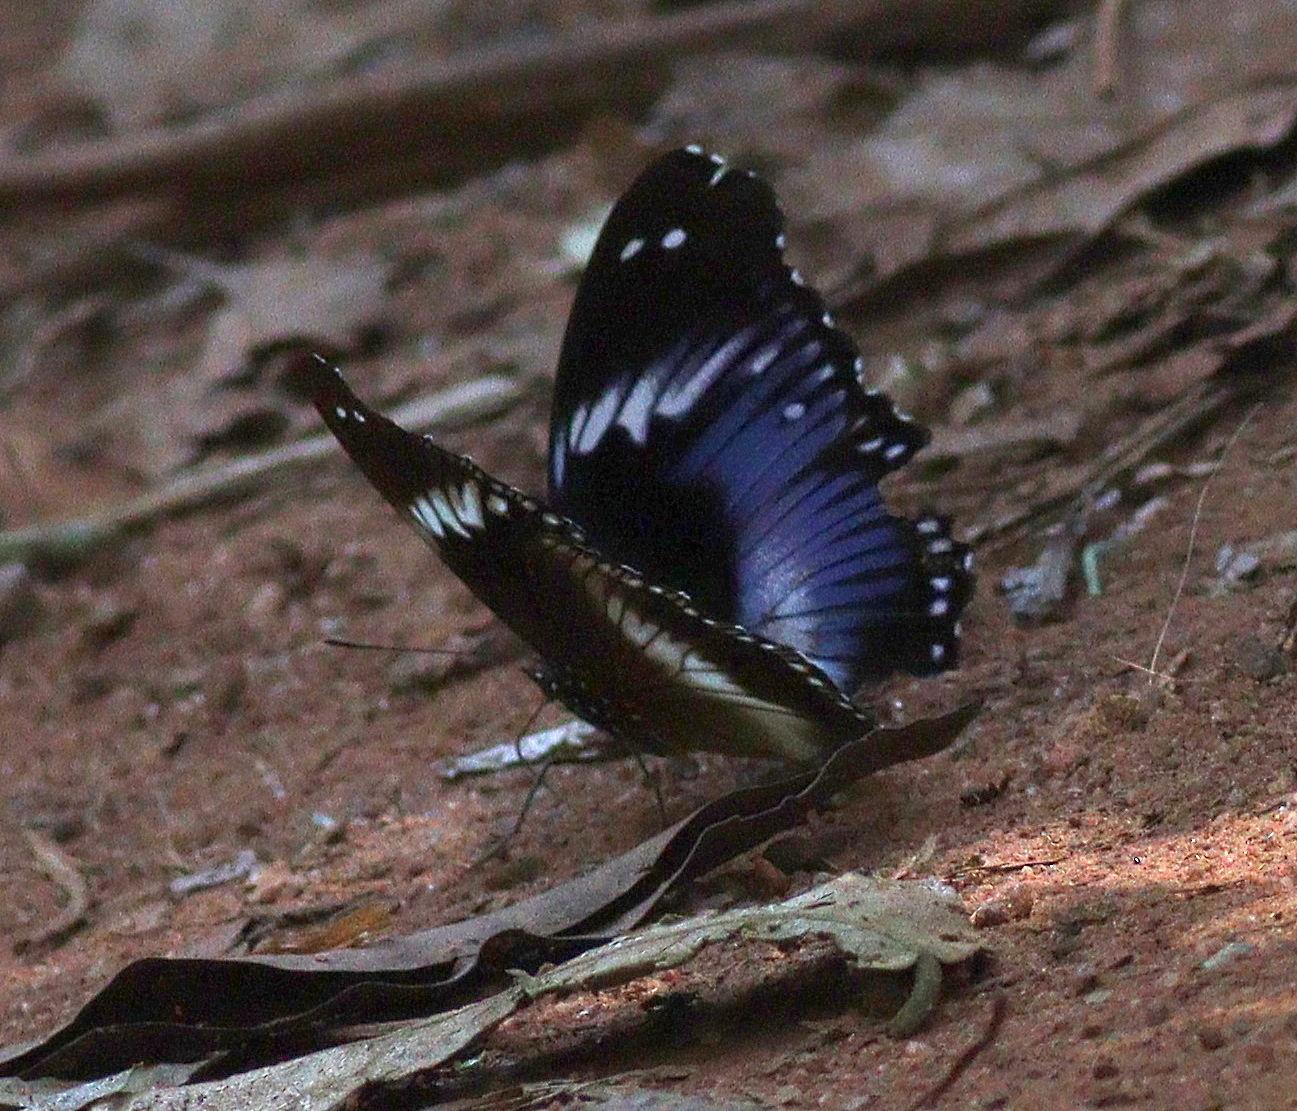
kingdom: Animalia
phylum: Arthropoda
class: Insecta
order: Lepidoptera
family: Nymphalidae
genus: Hypolimnas
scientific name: Hypolimnas salmacis
